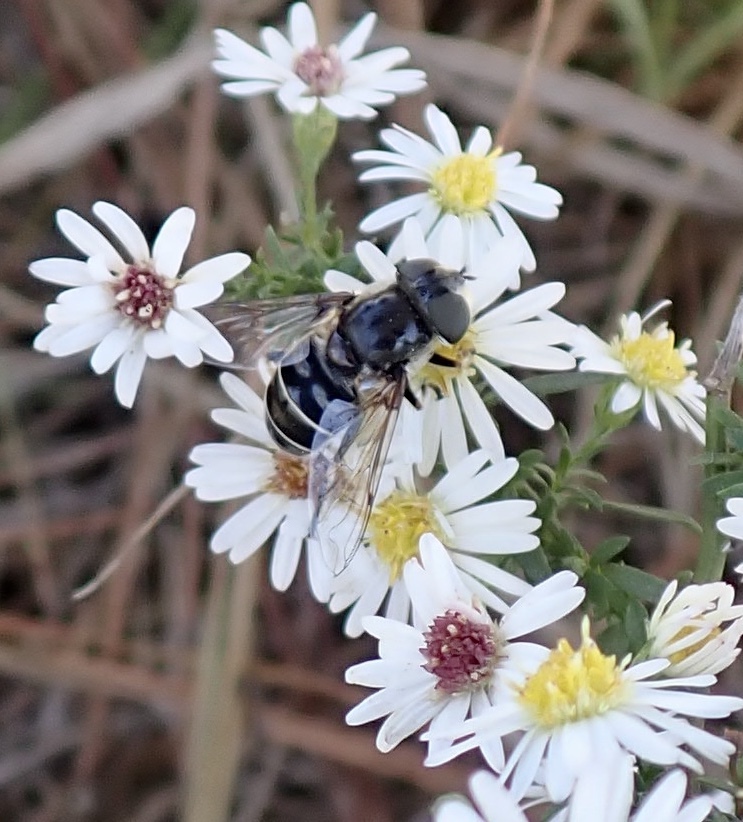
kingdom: Animalia
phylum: Arthropoda
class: Insecta
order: Diptera
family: Syrphidae
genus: Eristalis
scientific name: Eristalis dimidiata
